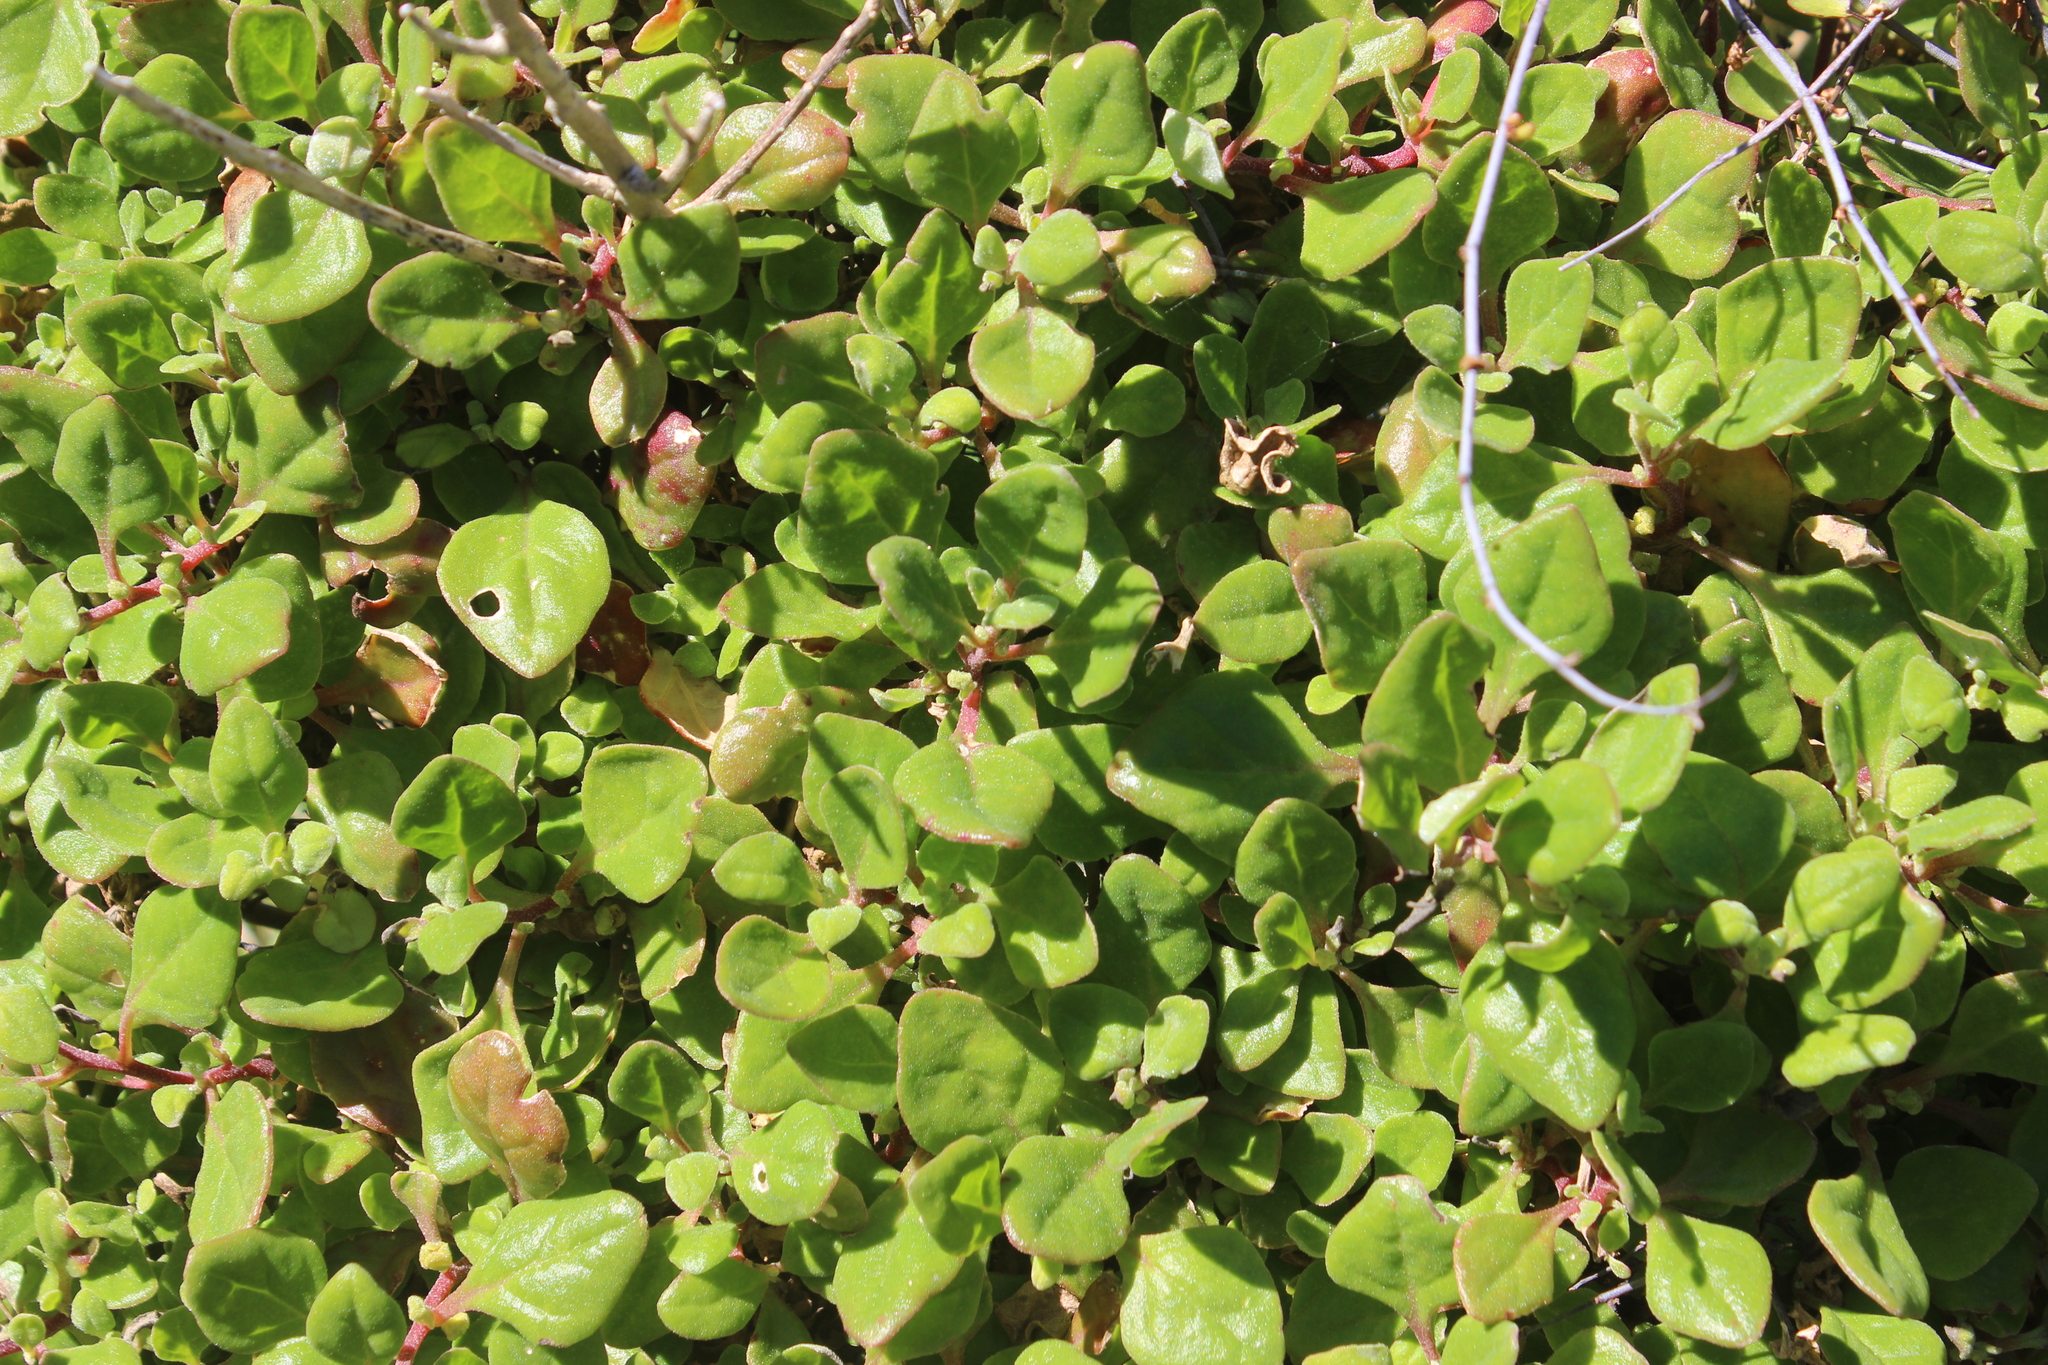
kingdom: Plantae
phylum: Tracheophyta
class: Magnoliopsida
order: Caryophyllales
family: Aizoaceae
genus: Tetragonia
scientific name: Tetragonia implexicoma
